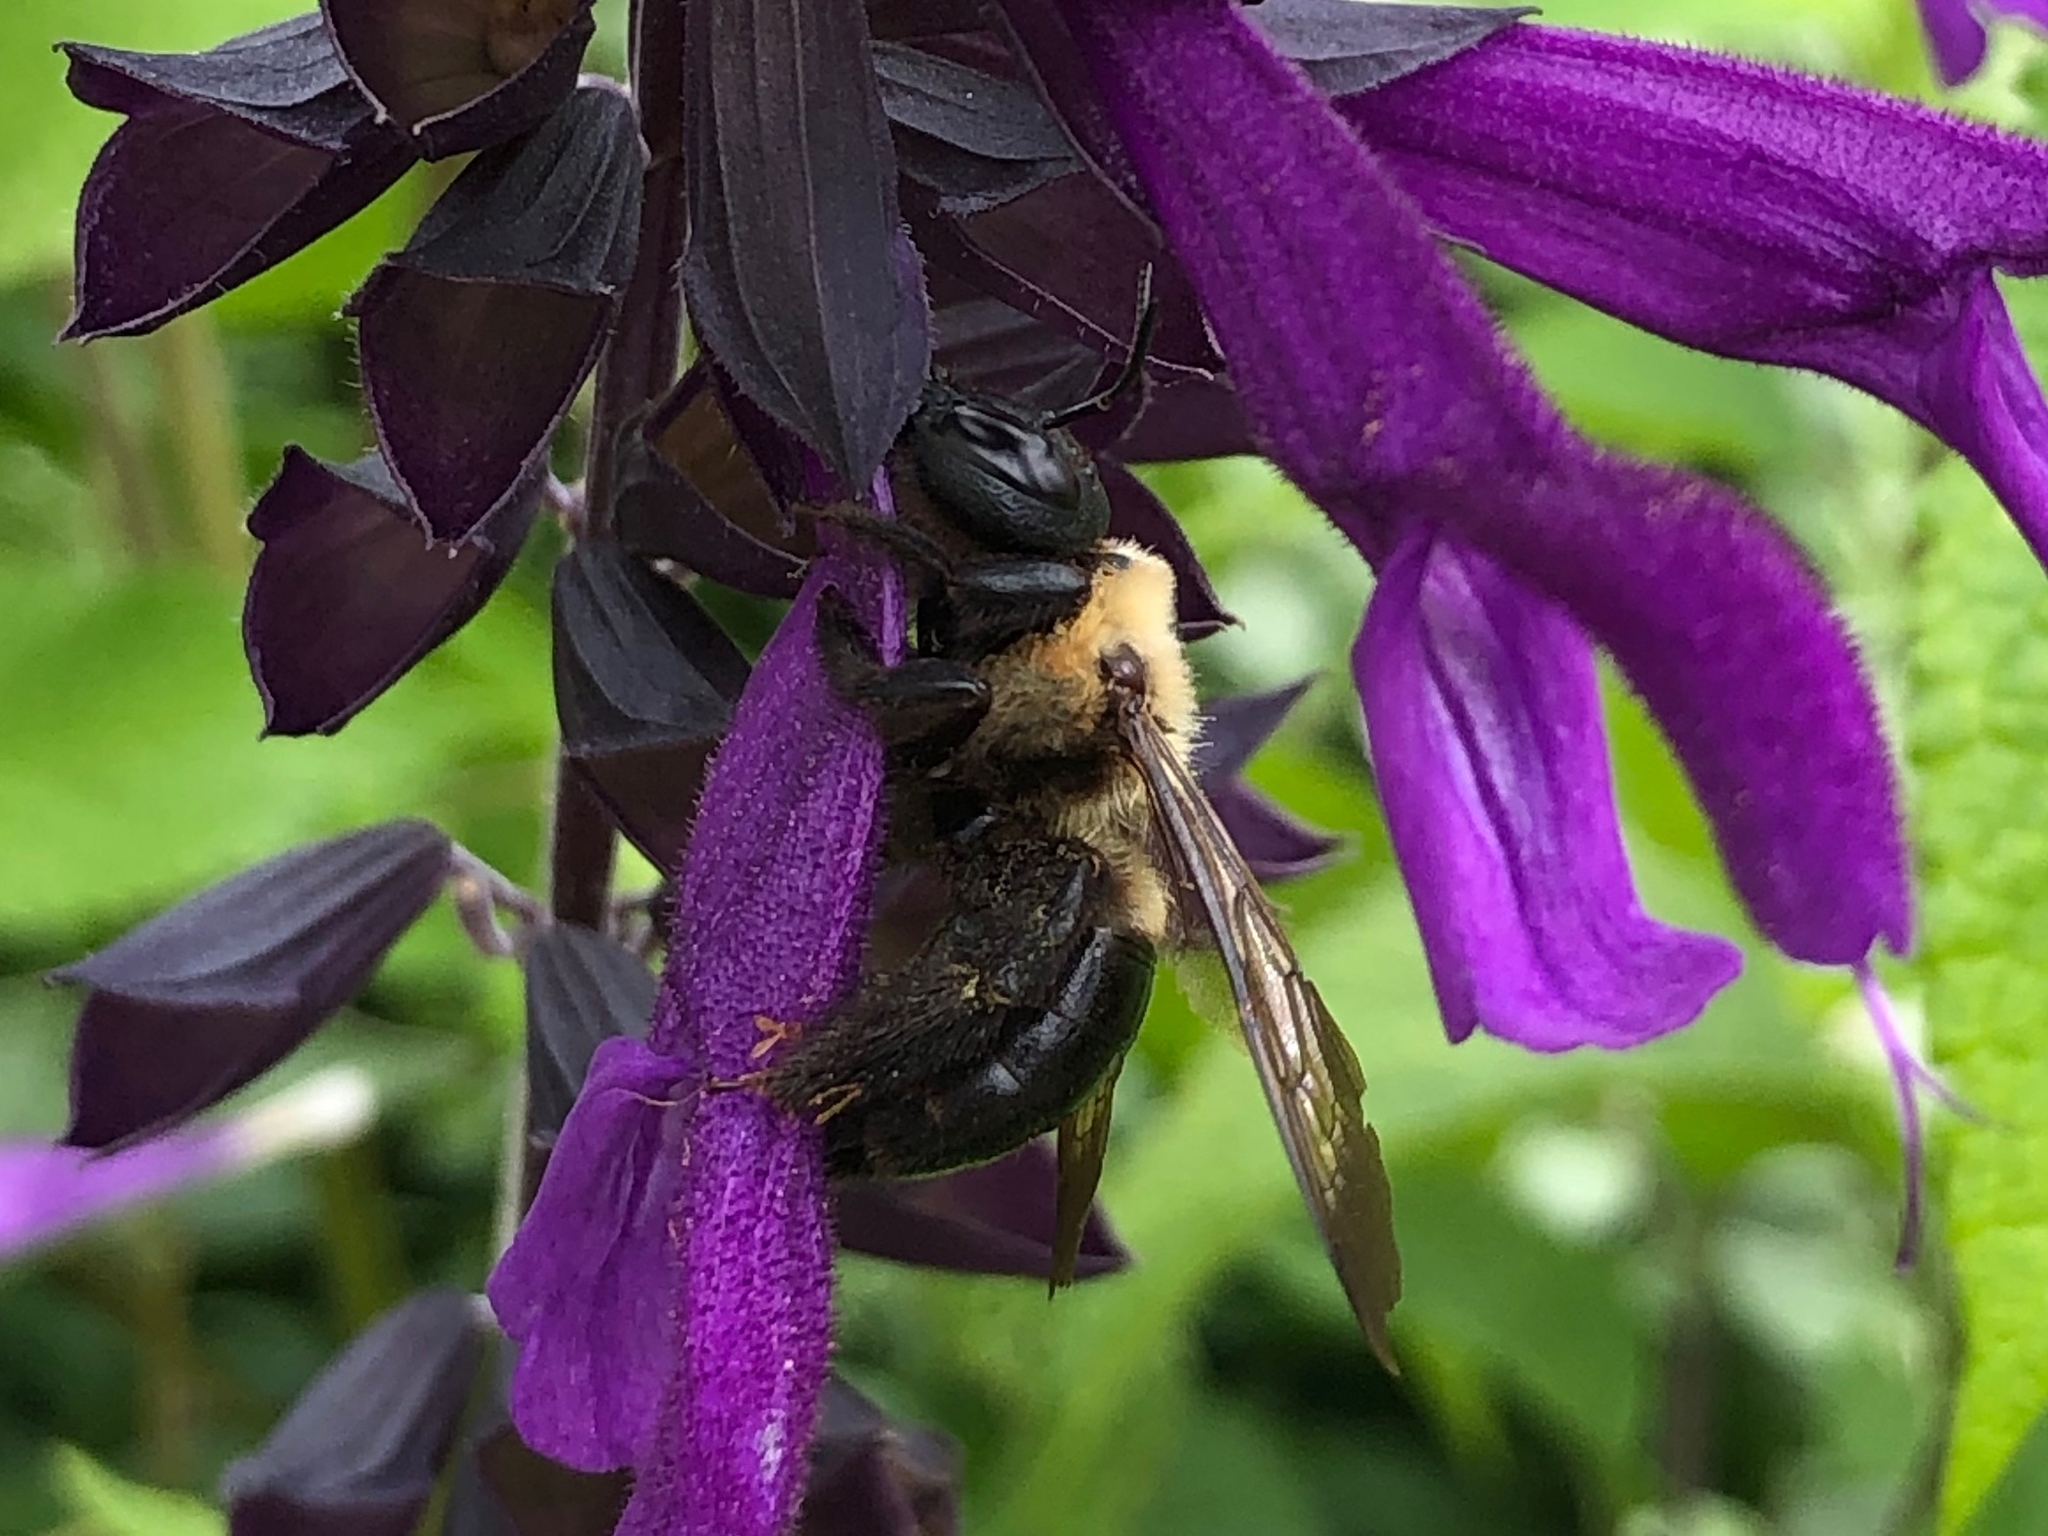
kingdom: Animalia
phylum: Arthropoda
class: Insecta
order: Hymenoptera
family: Apidae
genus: Xylocopa
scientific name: Xylocopa virginica
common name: Carpenter bee
